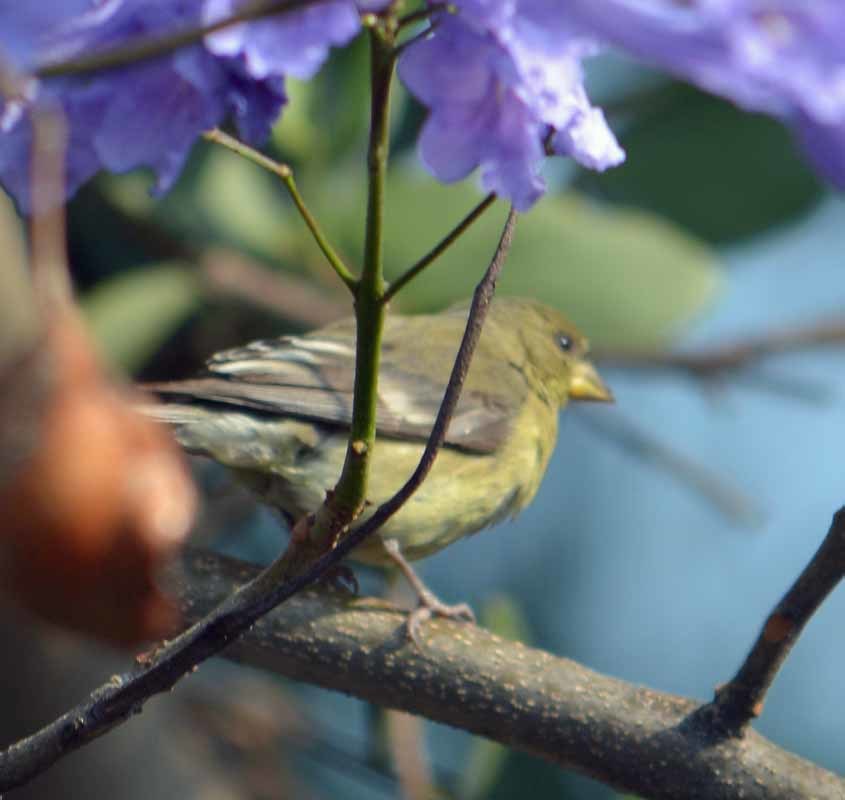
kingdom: Animalia
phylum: Chordata
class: Aves
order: Passeriformes
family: Fringillidae
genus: Spinus
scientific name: Spinus psaltria
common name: Lesser goldfinch
